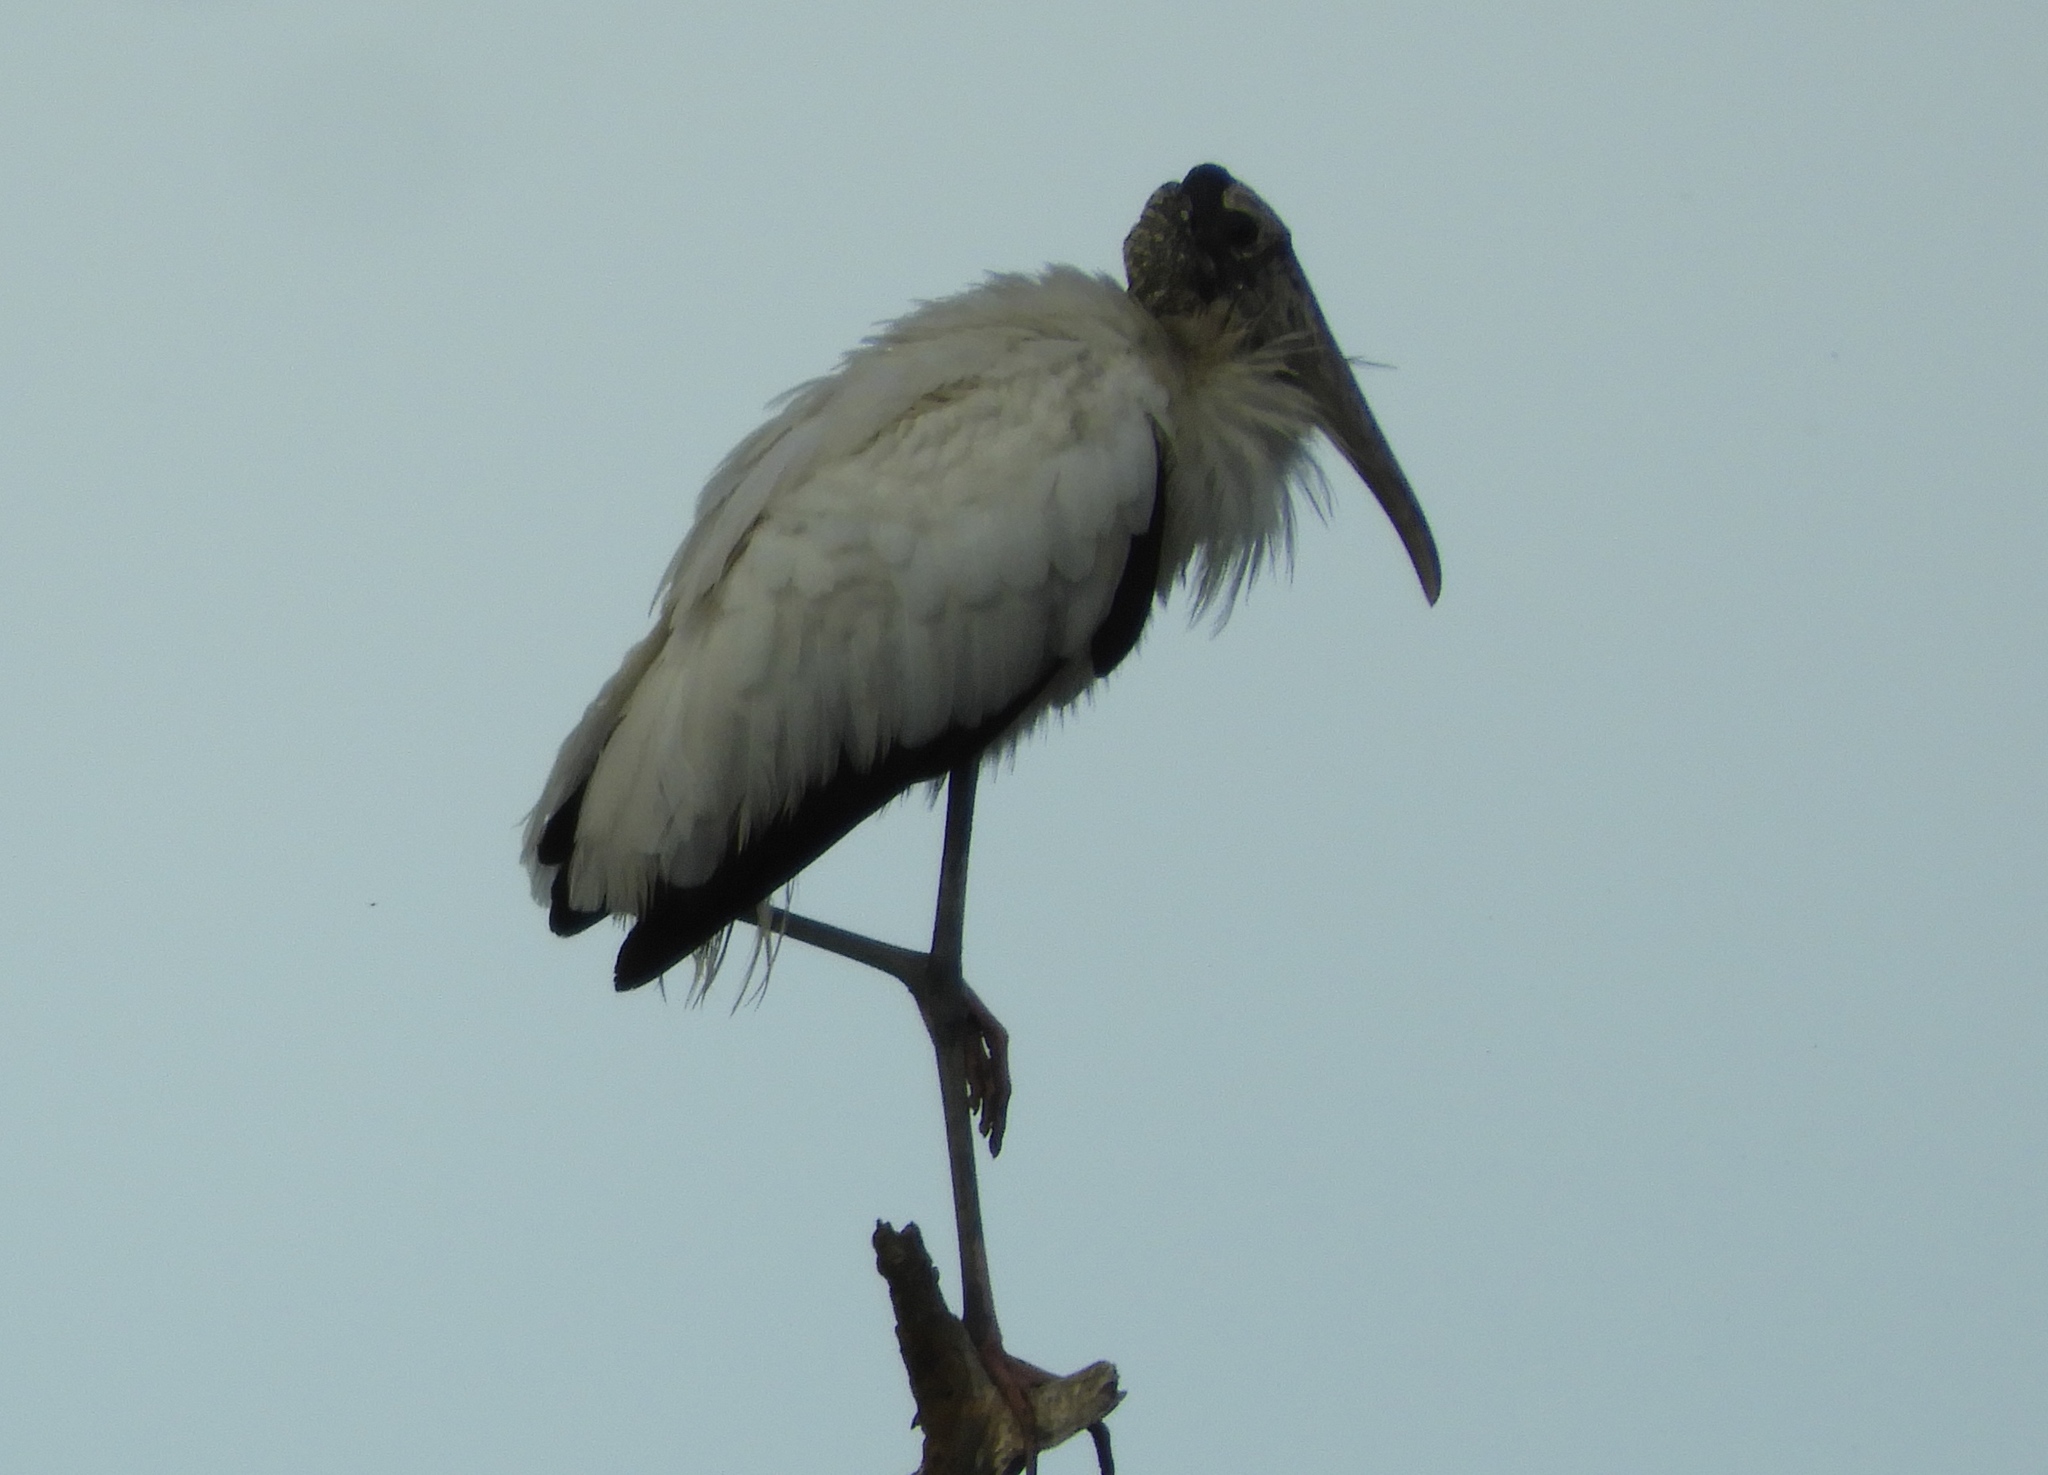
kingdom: Animalia
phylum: Chordata
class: Aves
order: Ciconiiformes
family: Ciconiidae
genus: Mycteria
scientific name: Mycteria americana
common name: Wood stork
